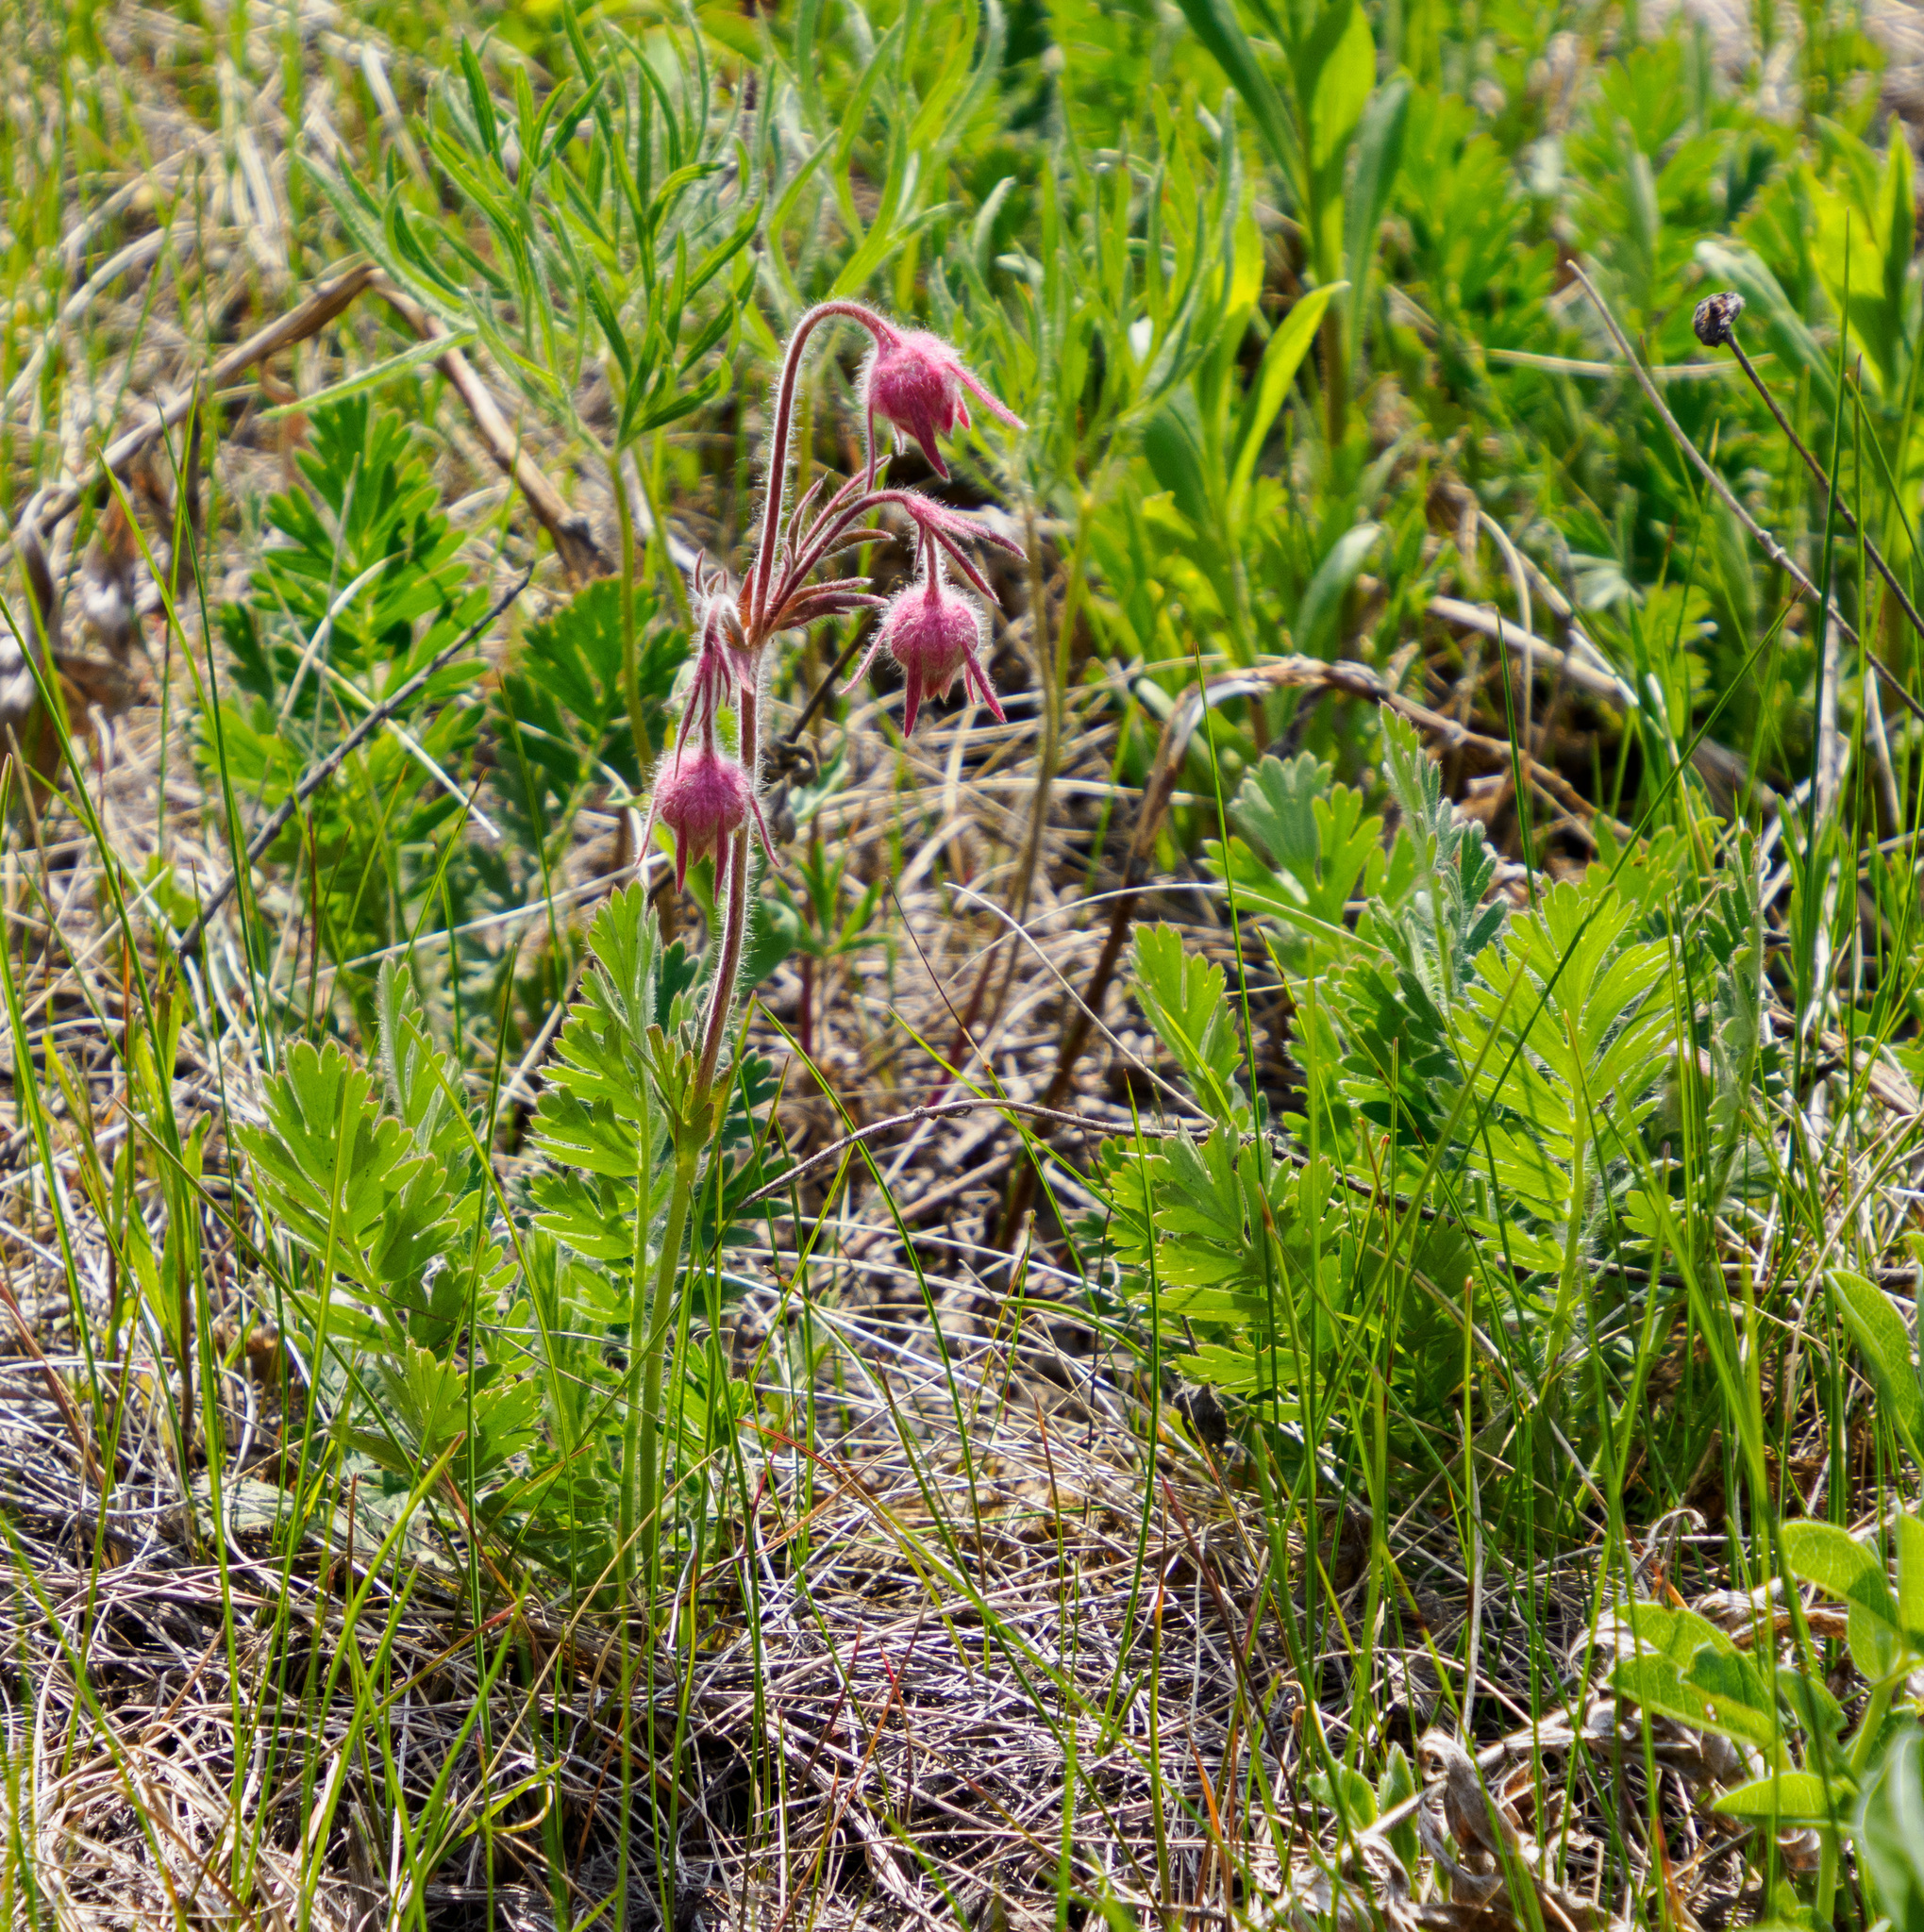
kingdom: Plantae
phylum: Tracheophyta
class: Magnoliopsida
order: Rosales
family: Rosaceae
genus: Geum
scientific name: Geum triflorum
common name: Old man's whiskers
